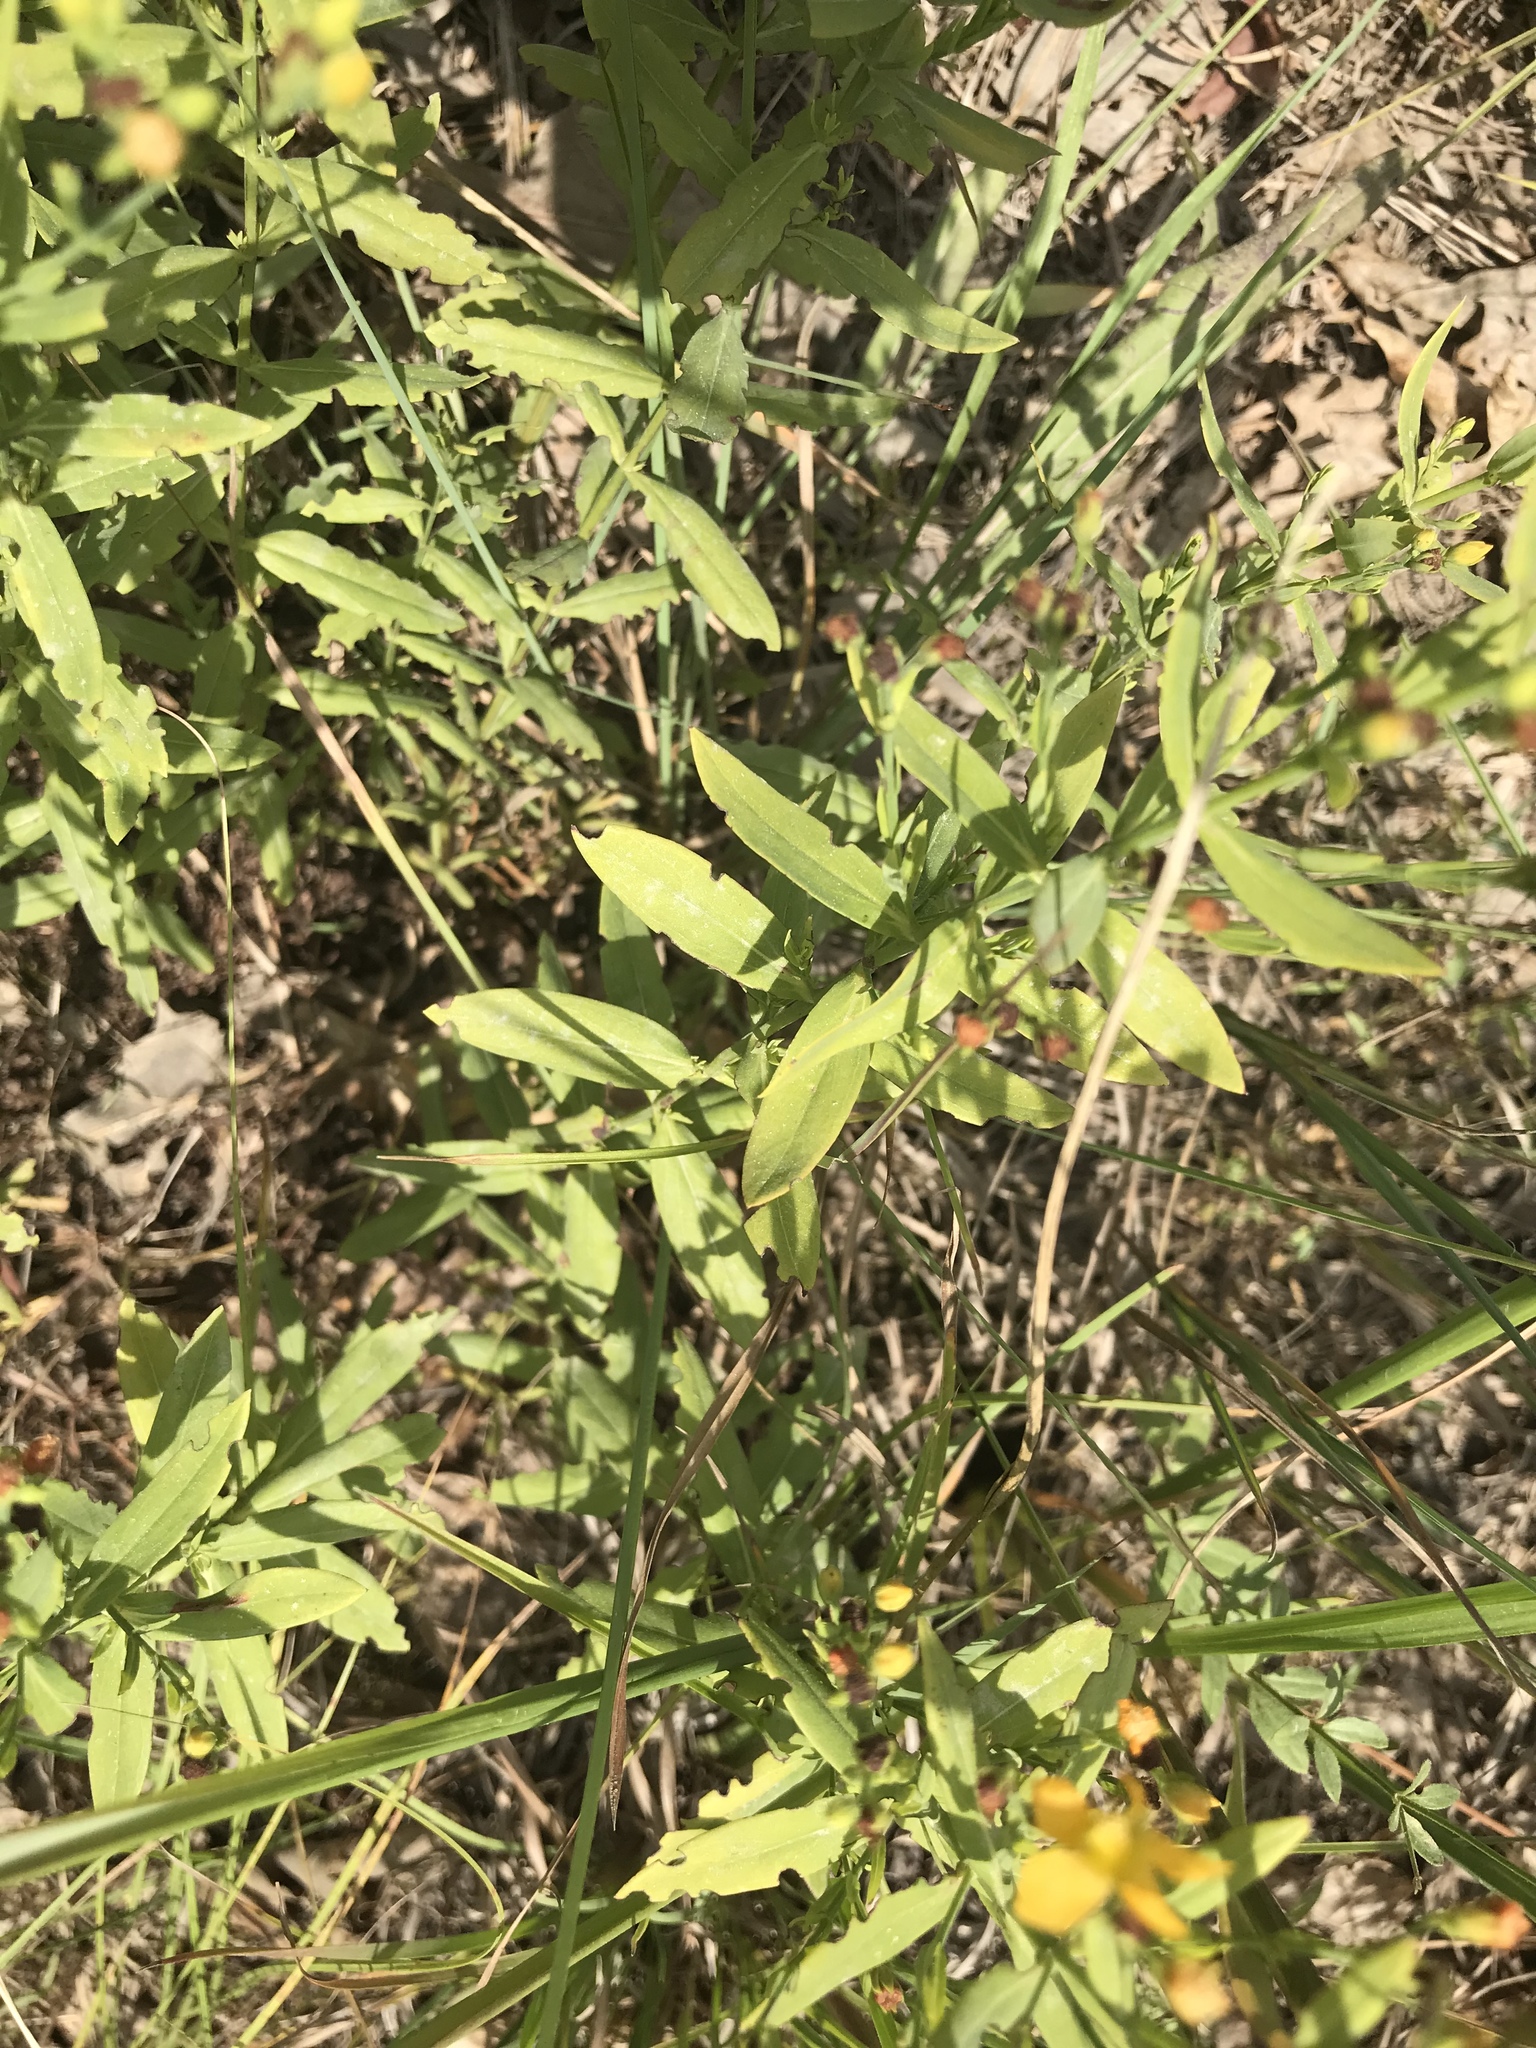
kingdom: Plantae
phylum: Tracheophyta
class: Magnoliopsida
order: Malpighiales
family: Hypericaceae
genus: Hypericum
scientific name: Hypericum virgatum
